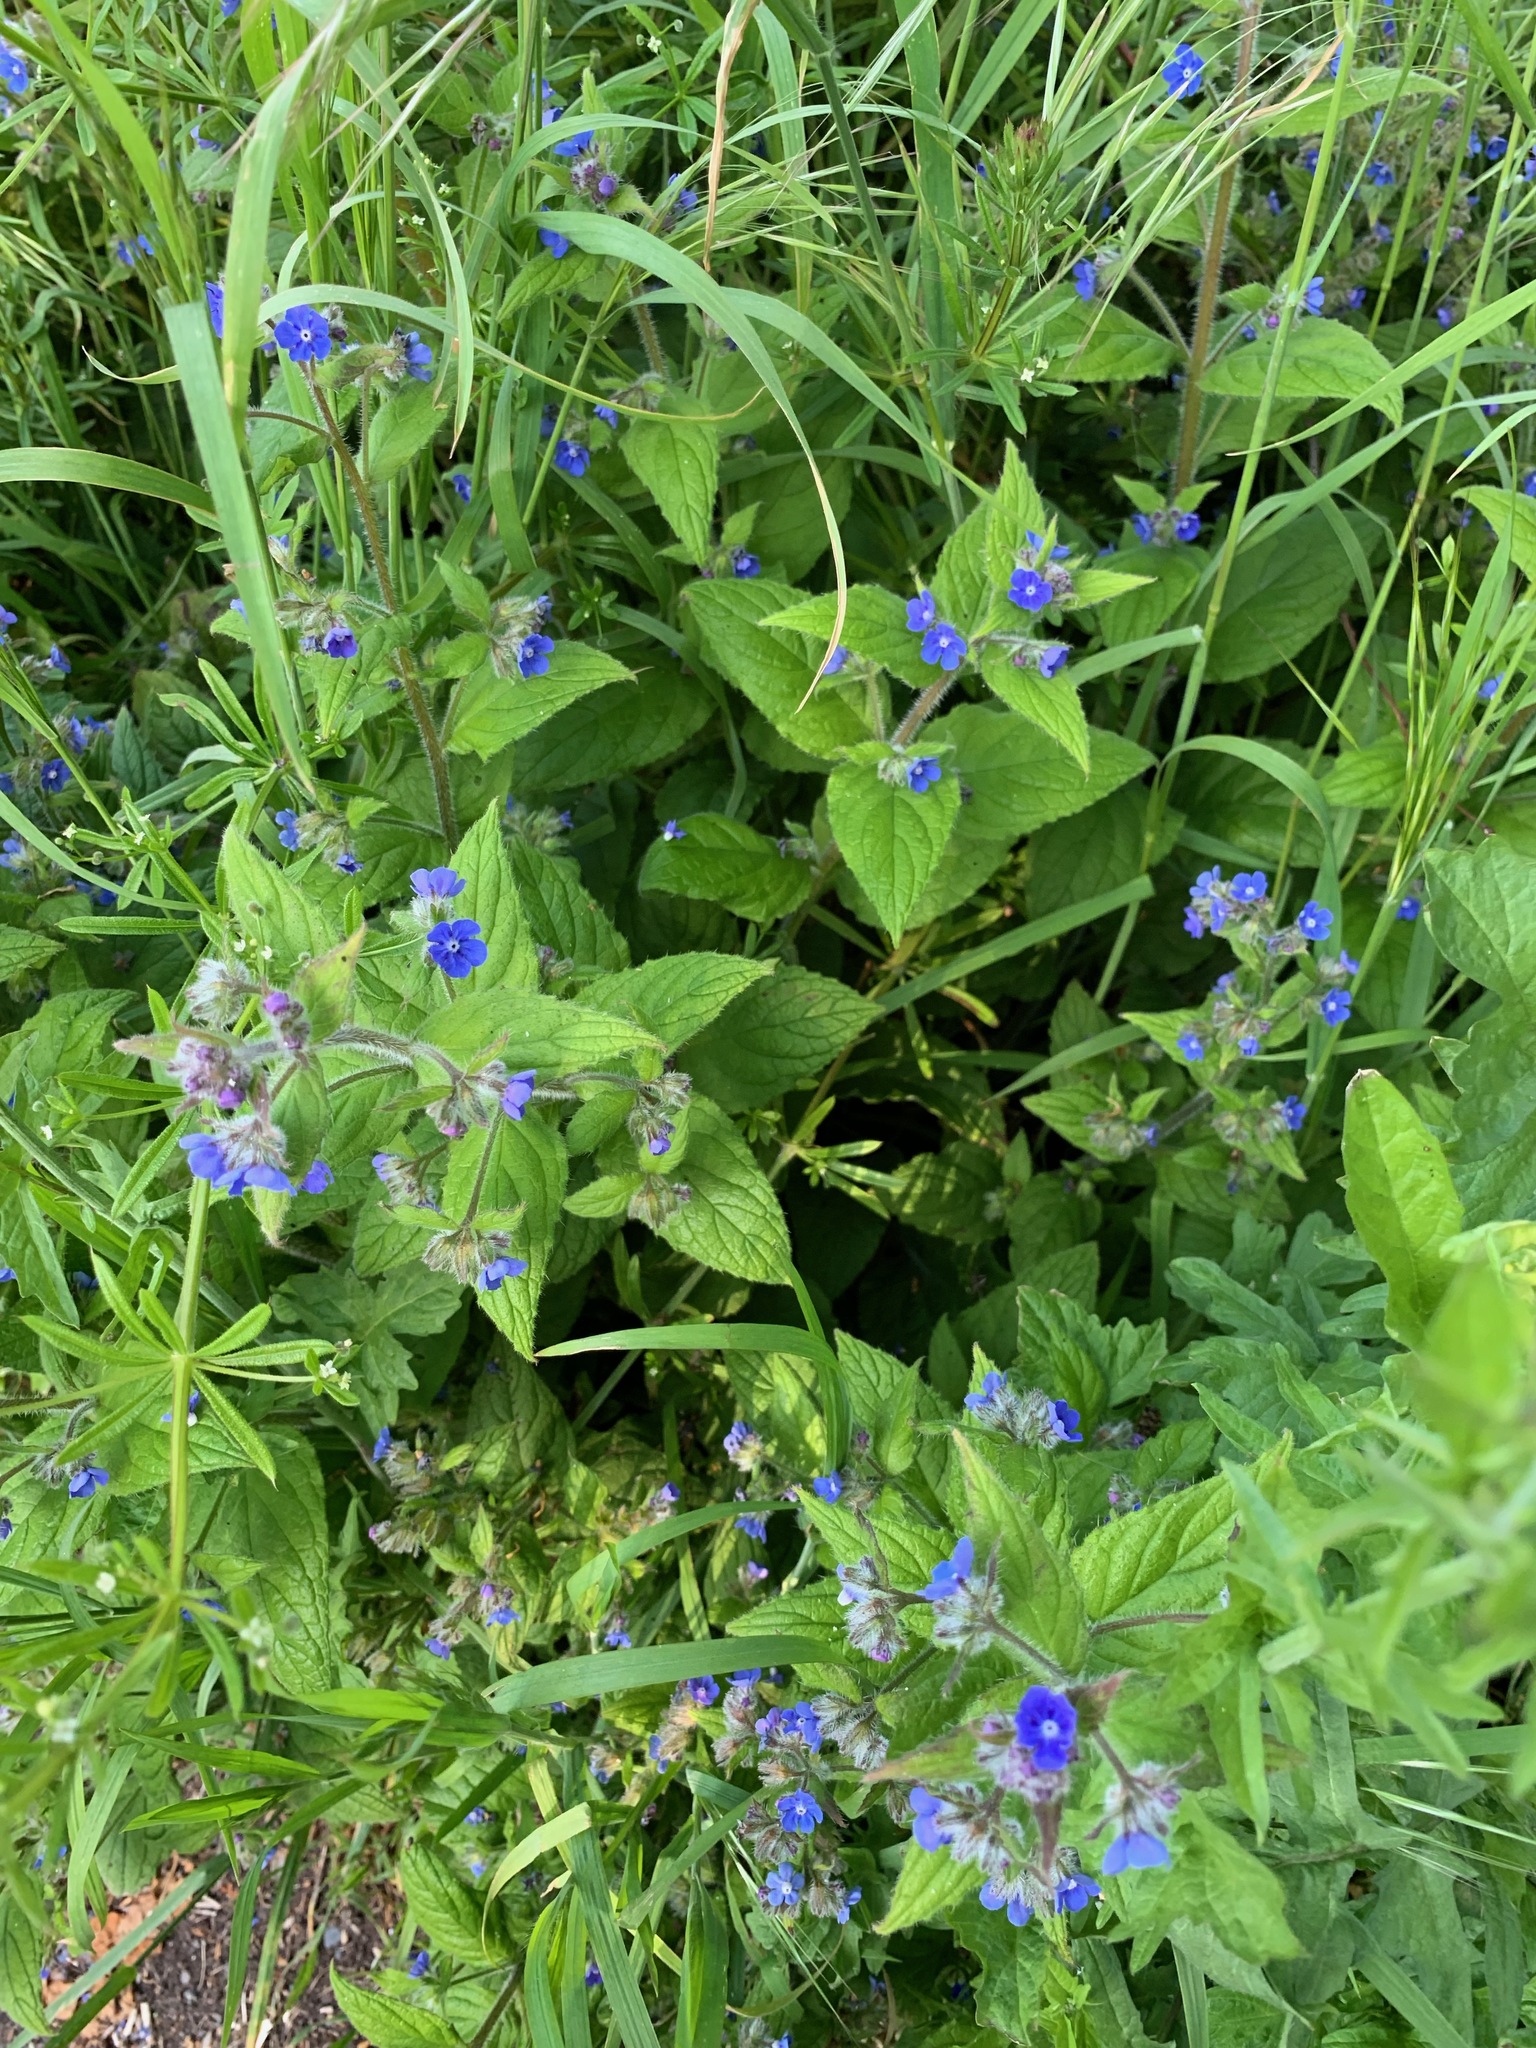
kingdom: Plantae
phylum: Tracheophyta
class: Magnoliopsida
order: Boraginales
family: Boraginaceae
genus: Pentaglottis
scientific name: Pentaglottis sempervirens
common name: Green alkanet
